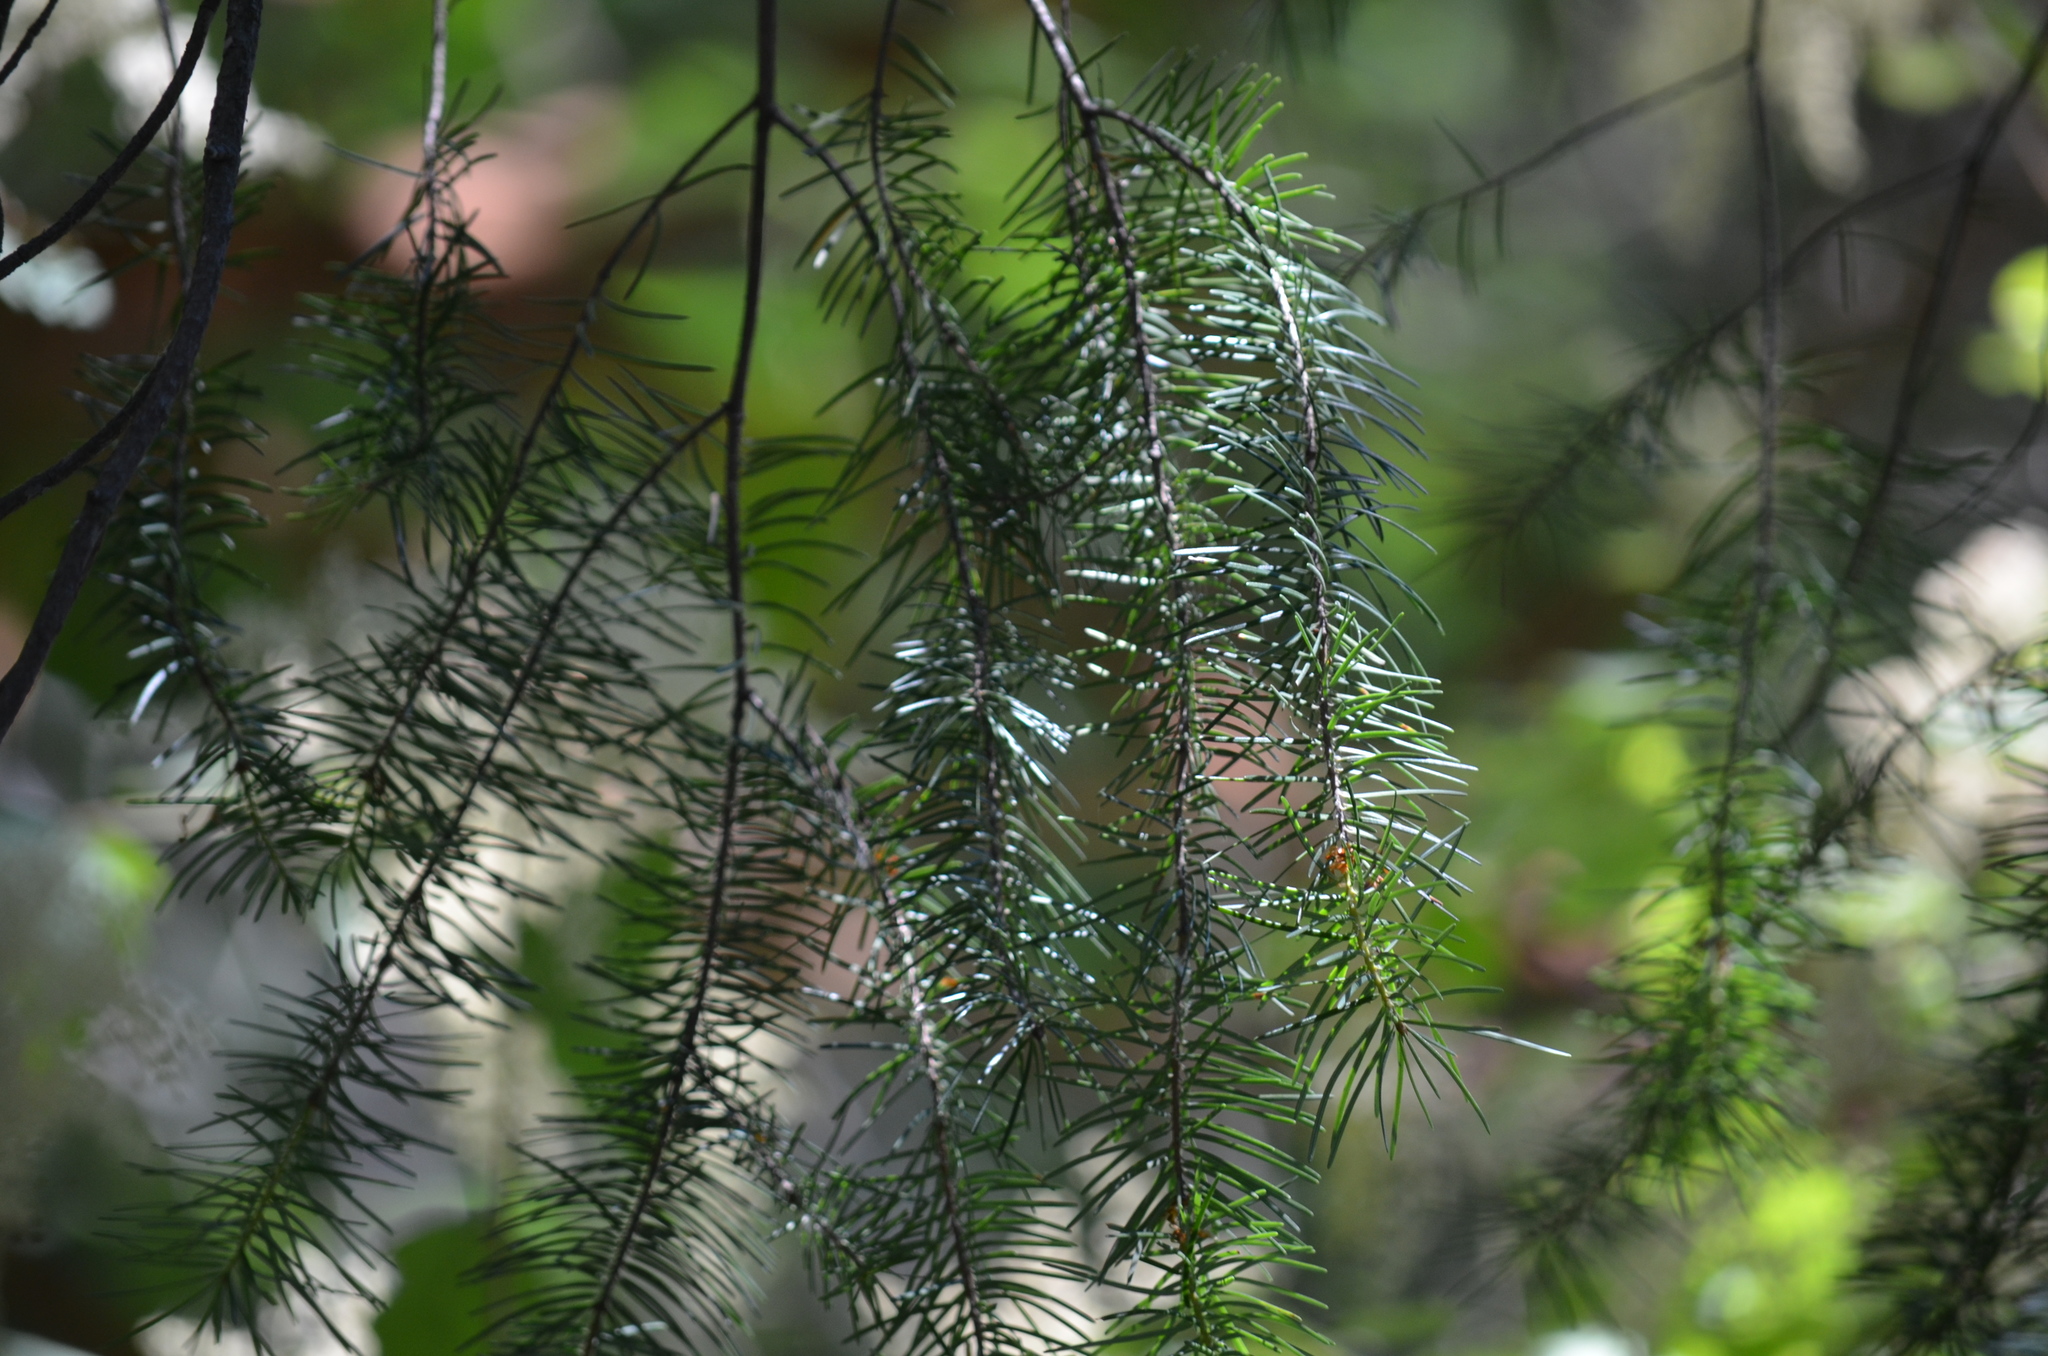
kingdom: Plantae
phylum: Tracheophyta
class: Pinopsida
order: Pinales
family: Pinaceae
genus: Pseudotsuga
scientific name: Pseudotsuga menziesii
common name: Douglas fir
